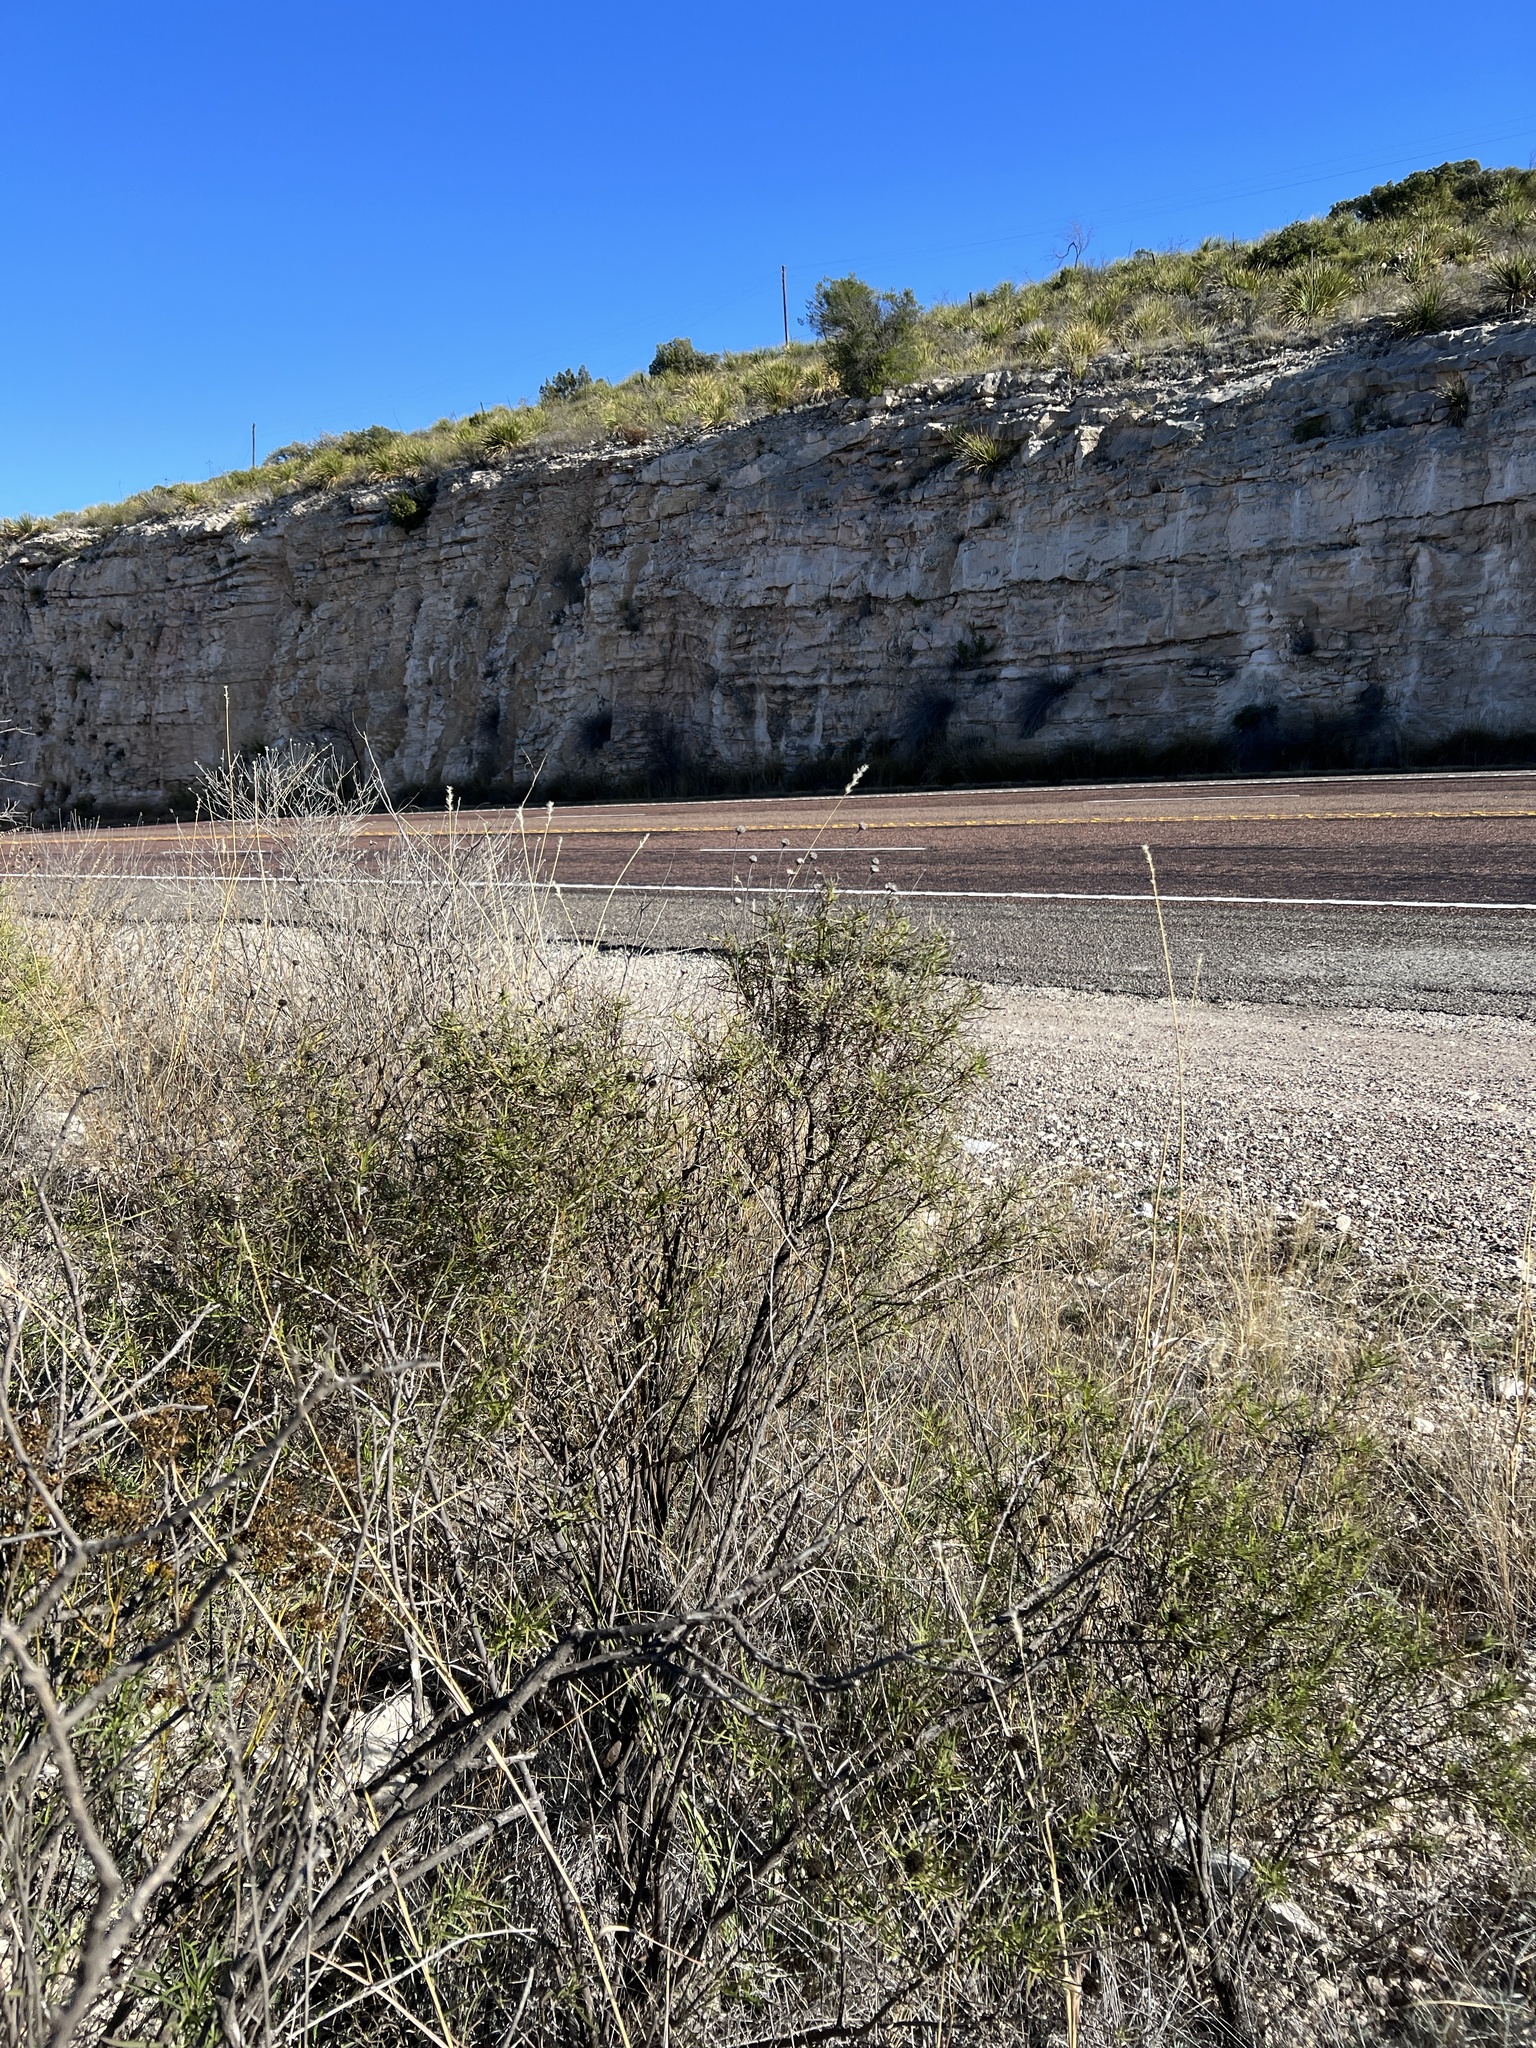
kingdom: Plantae
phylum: Tracheophyta
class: Magnoliopsida
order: Asterales
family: Asteraceae
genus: Sidneya
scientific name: Sidneya tenuifolia
